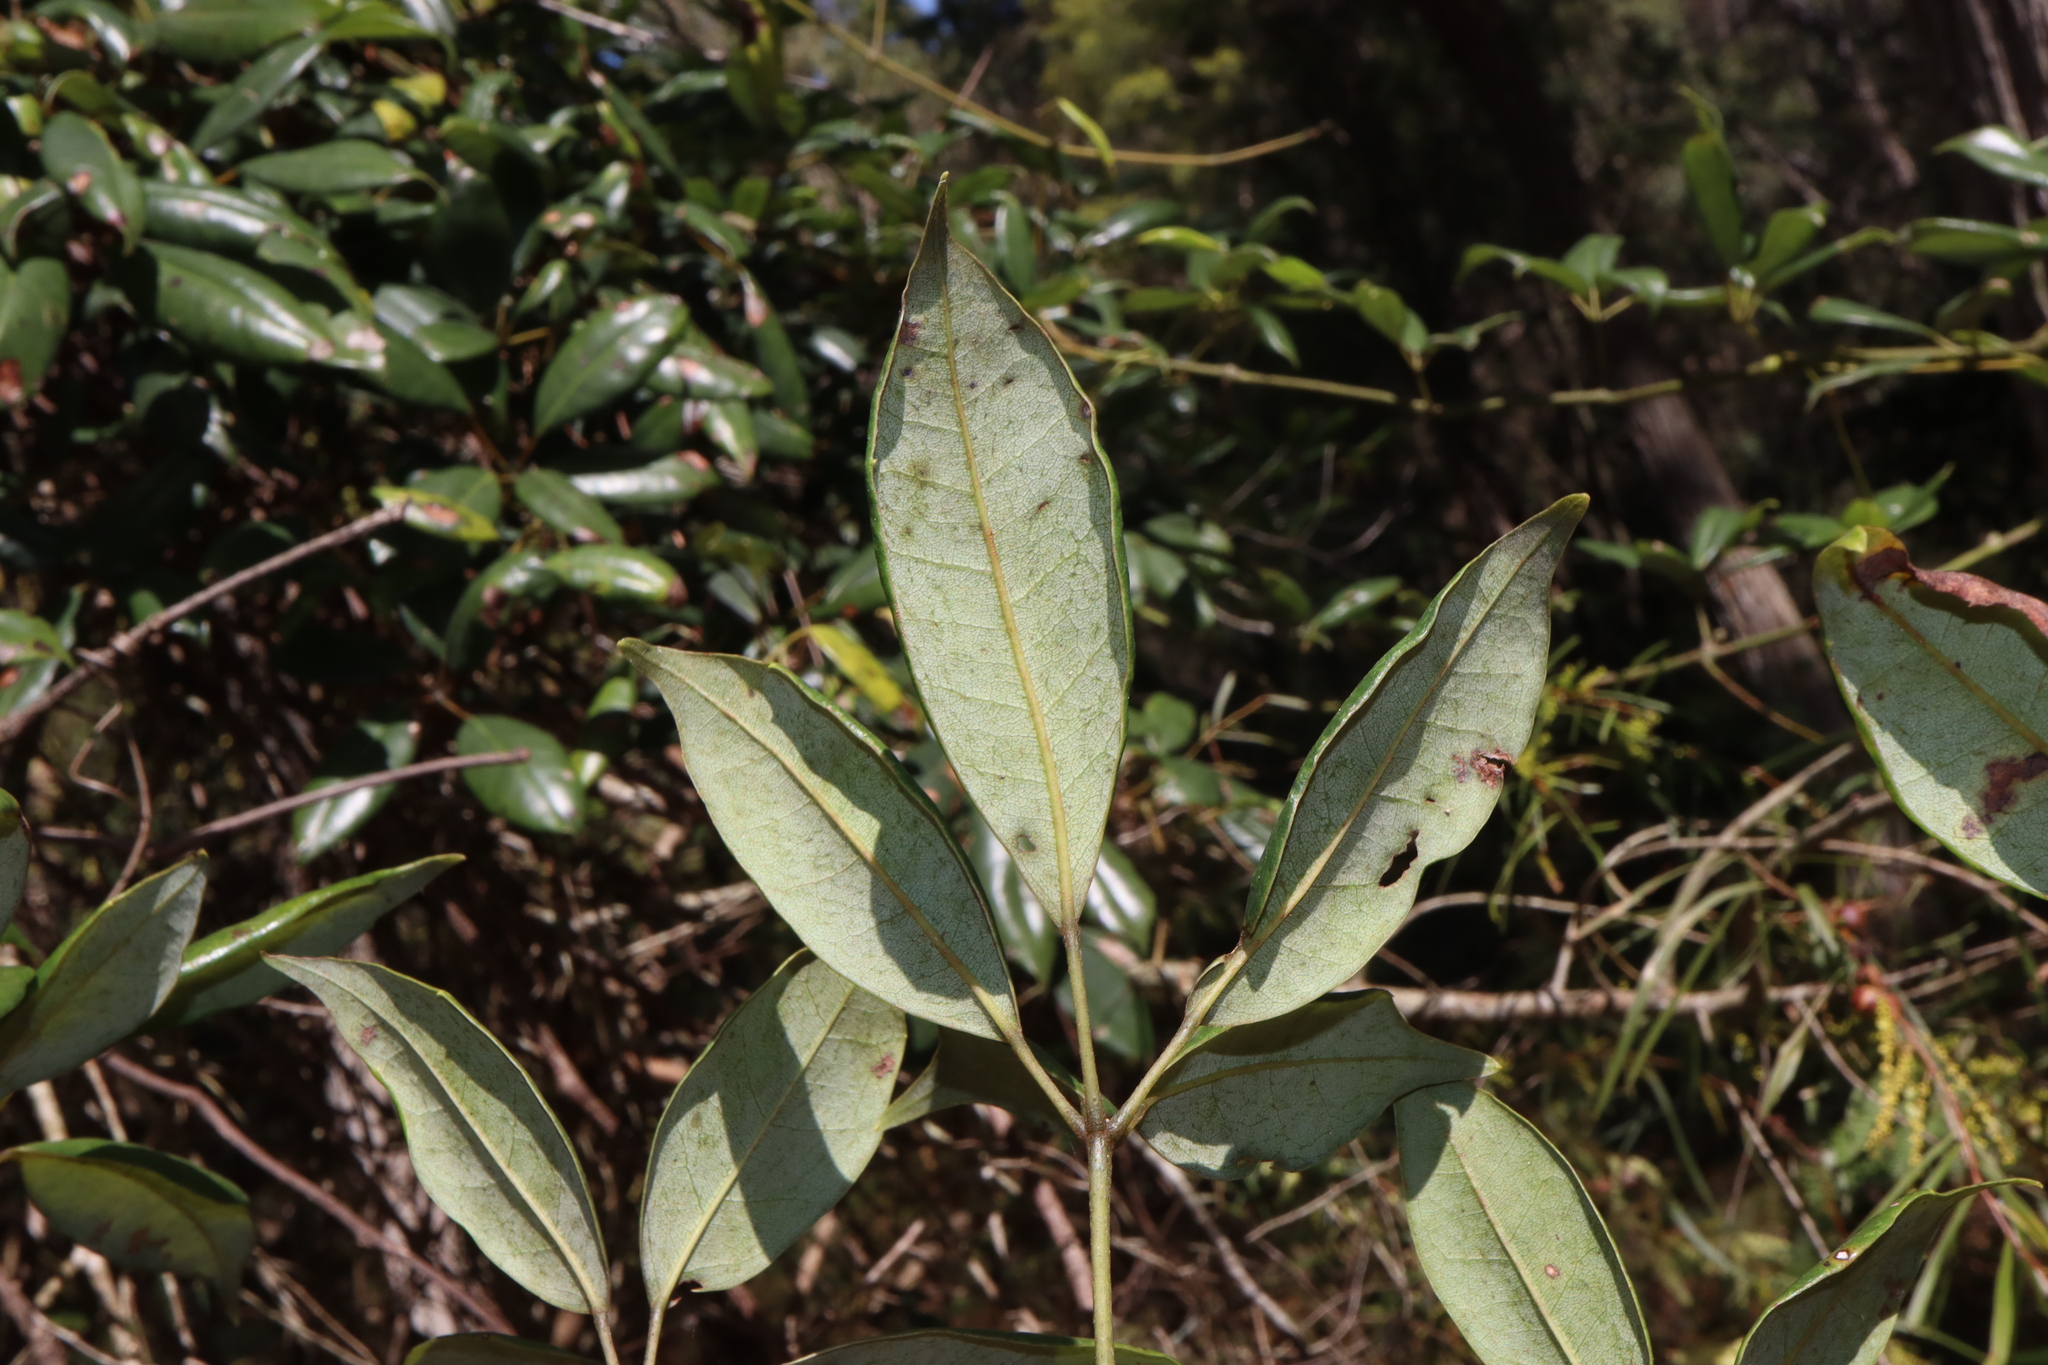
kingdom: Plantae
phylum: Tracheophyta
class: Magnoliopsida
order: Vitales
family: Vitaceae
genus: Nothocissus
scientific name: Nothocissus hypoglauca
